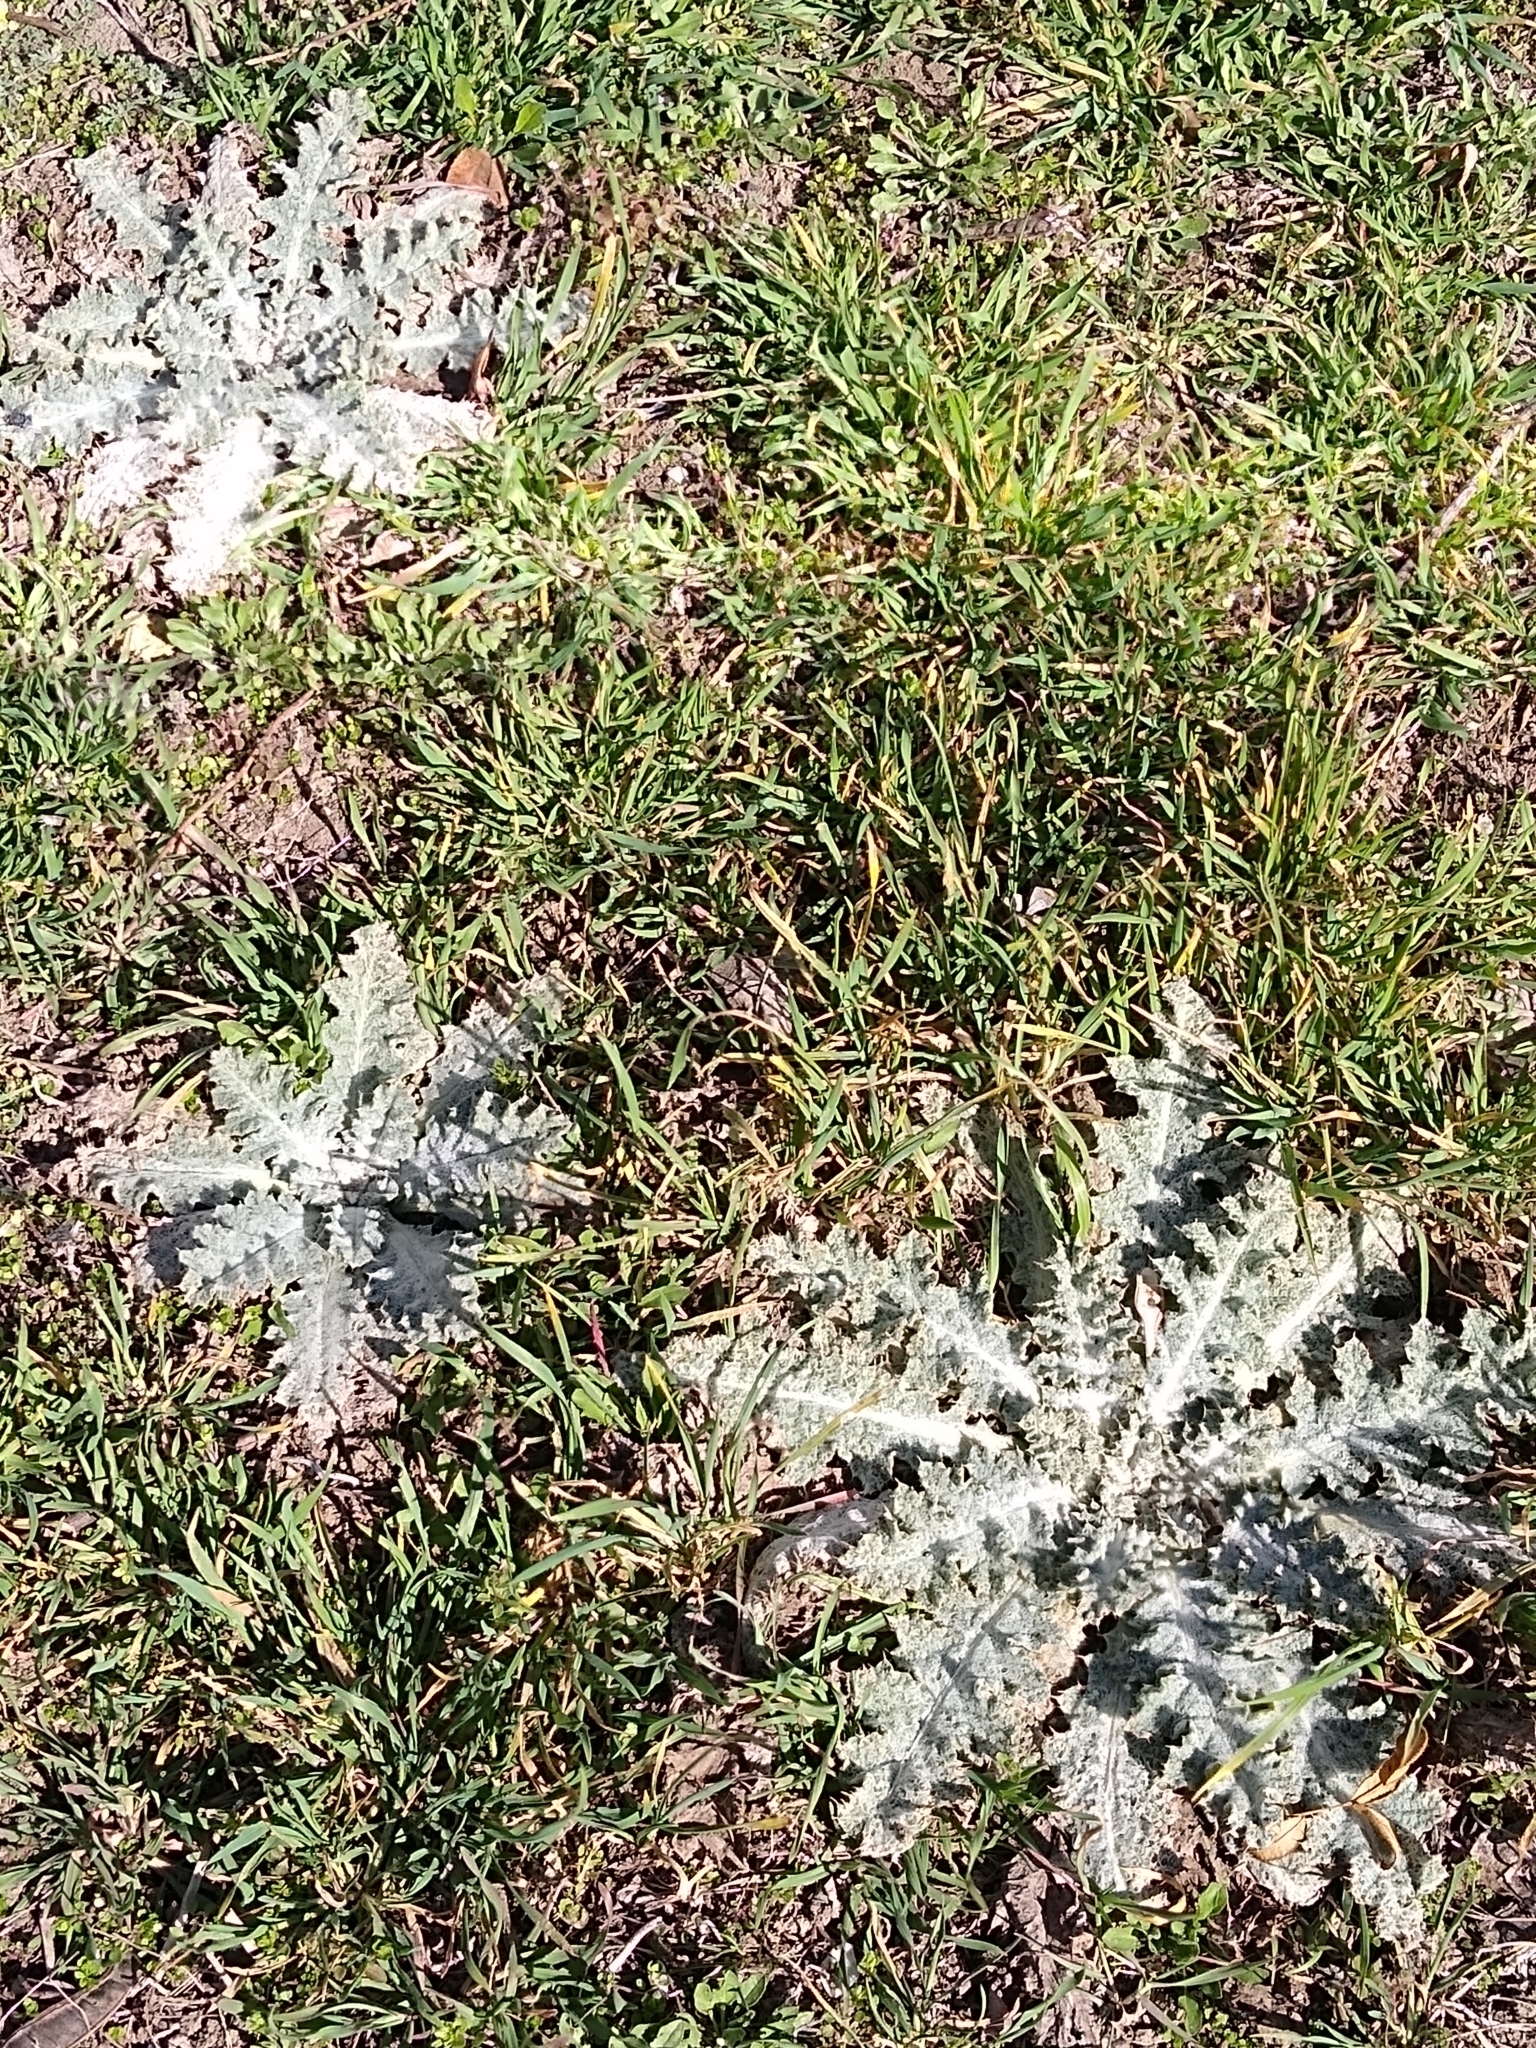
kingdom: Plantae
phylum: Tracheophyta
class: Magnoliopsida
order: Asterales
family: Asteraceae
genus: Onopordum
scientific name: Onopordum acanthium
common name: Scotch thistle
